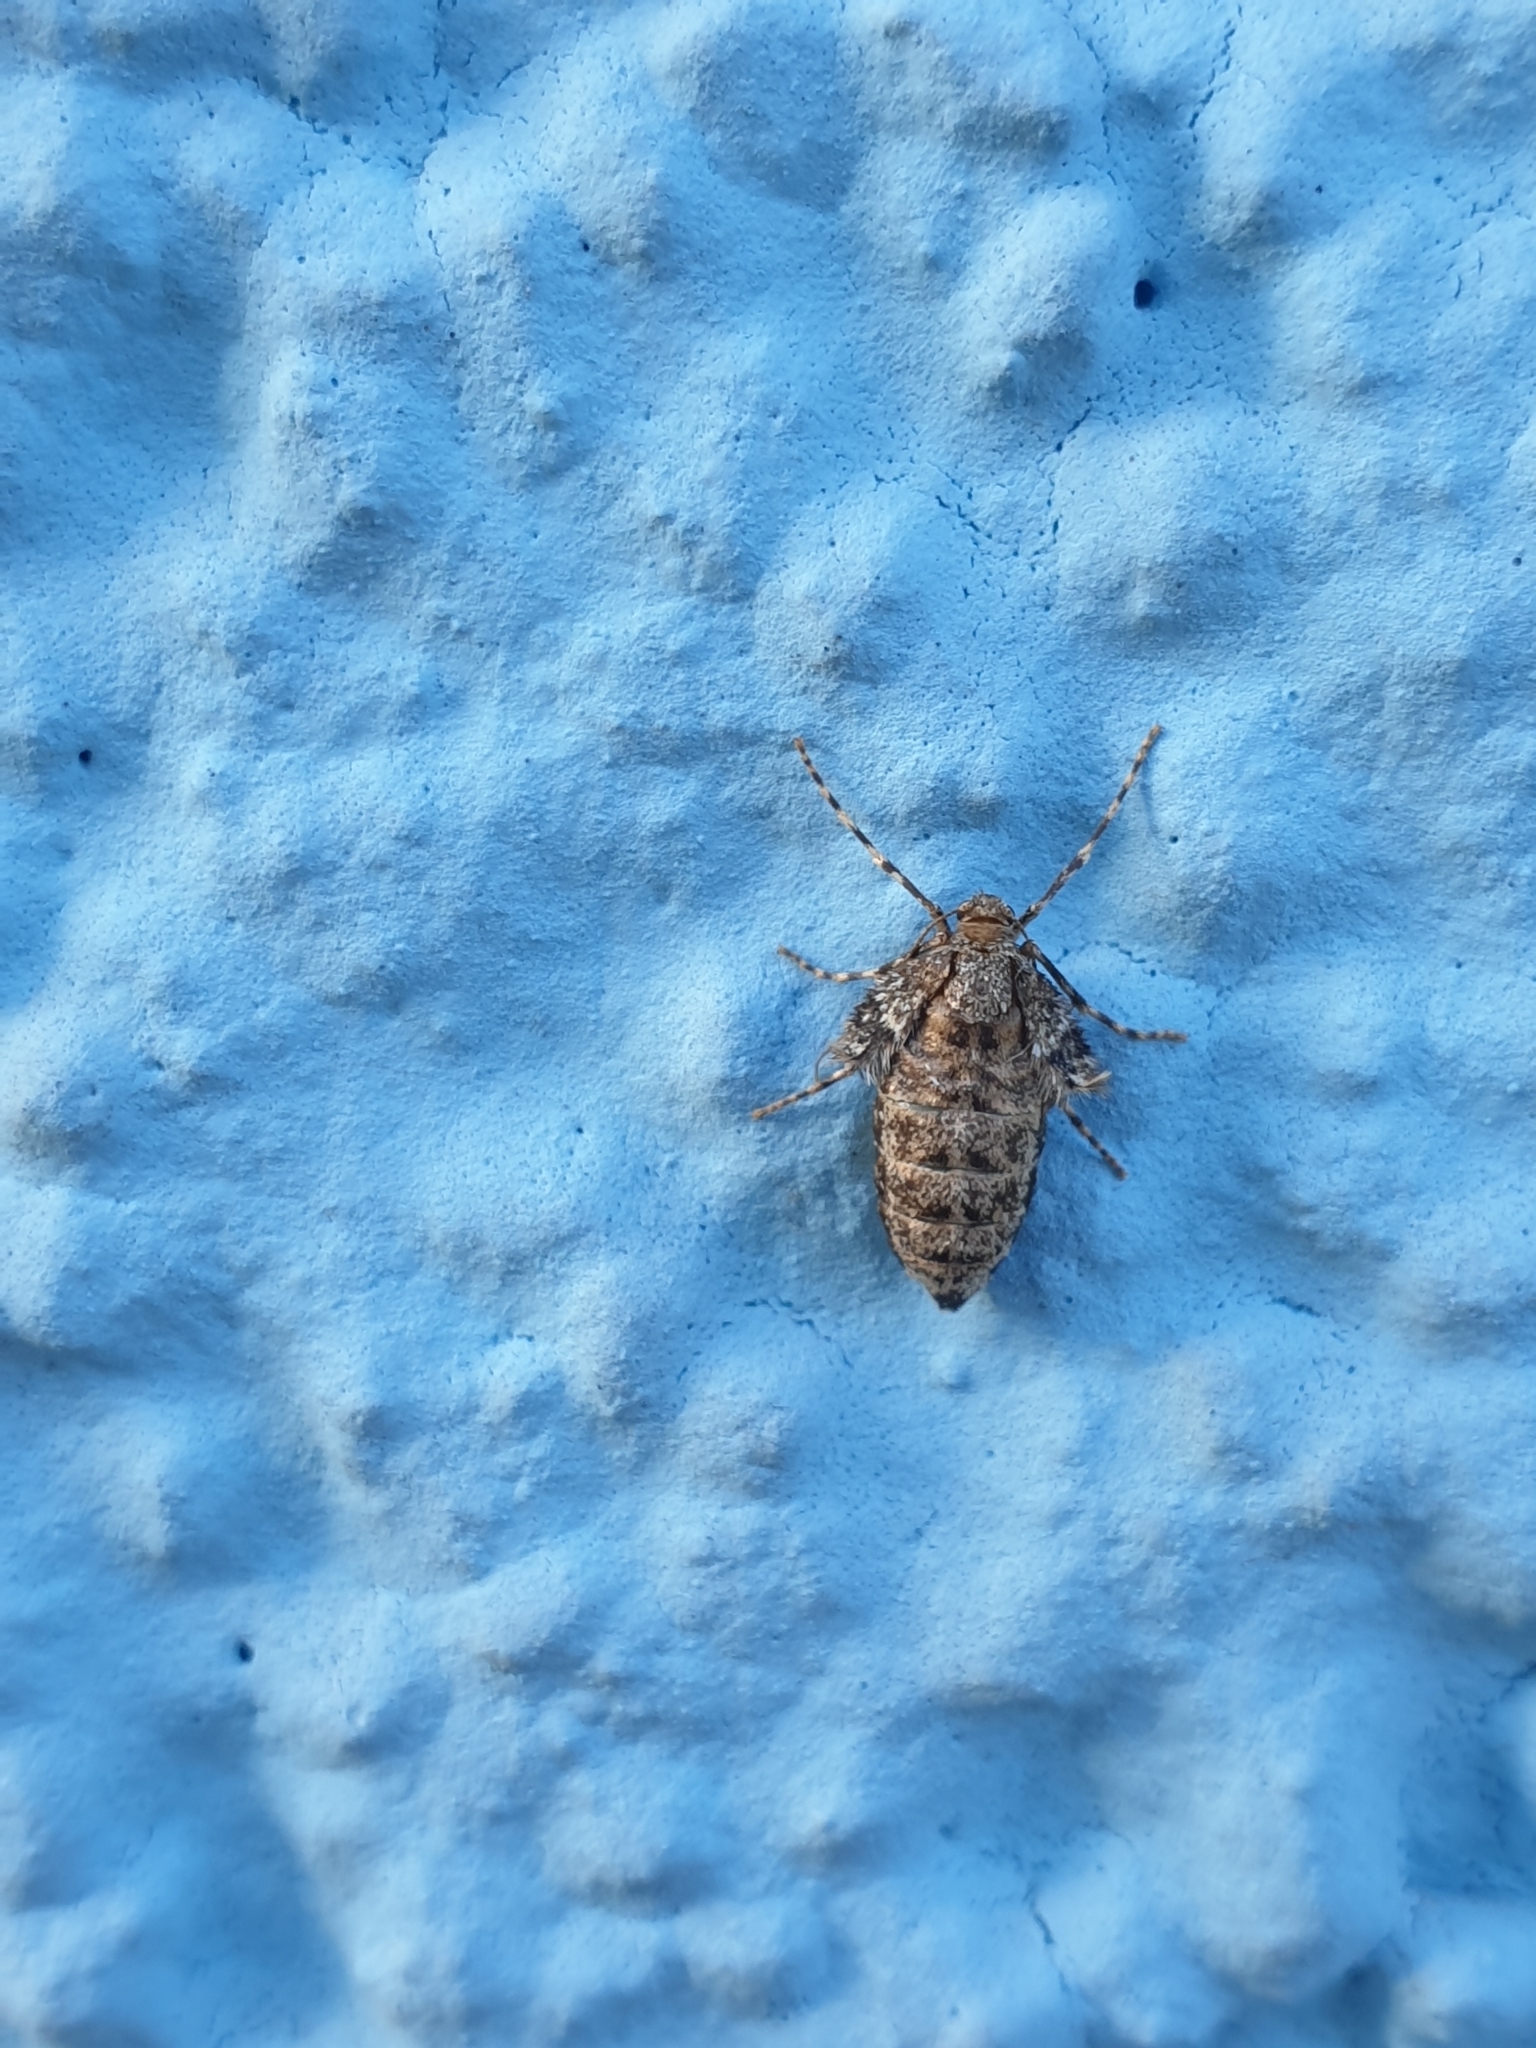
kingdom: Animalia
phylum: Arthropoda
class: Insecta
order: Lepidoptera
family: Geometridae
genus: Operophtera
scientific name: Operophtera brumata
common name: Winter moth
